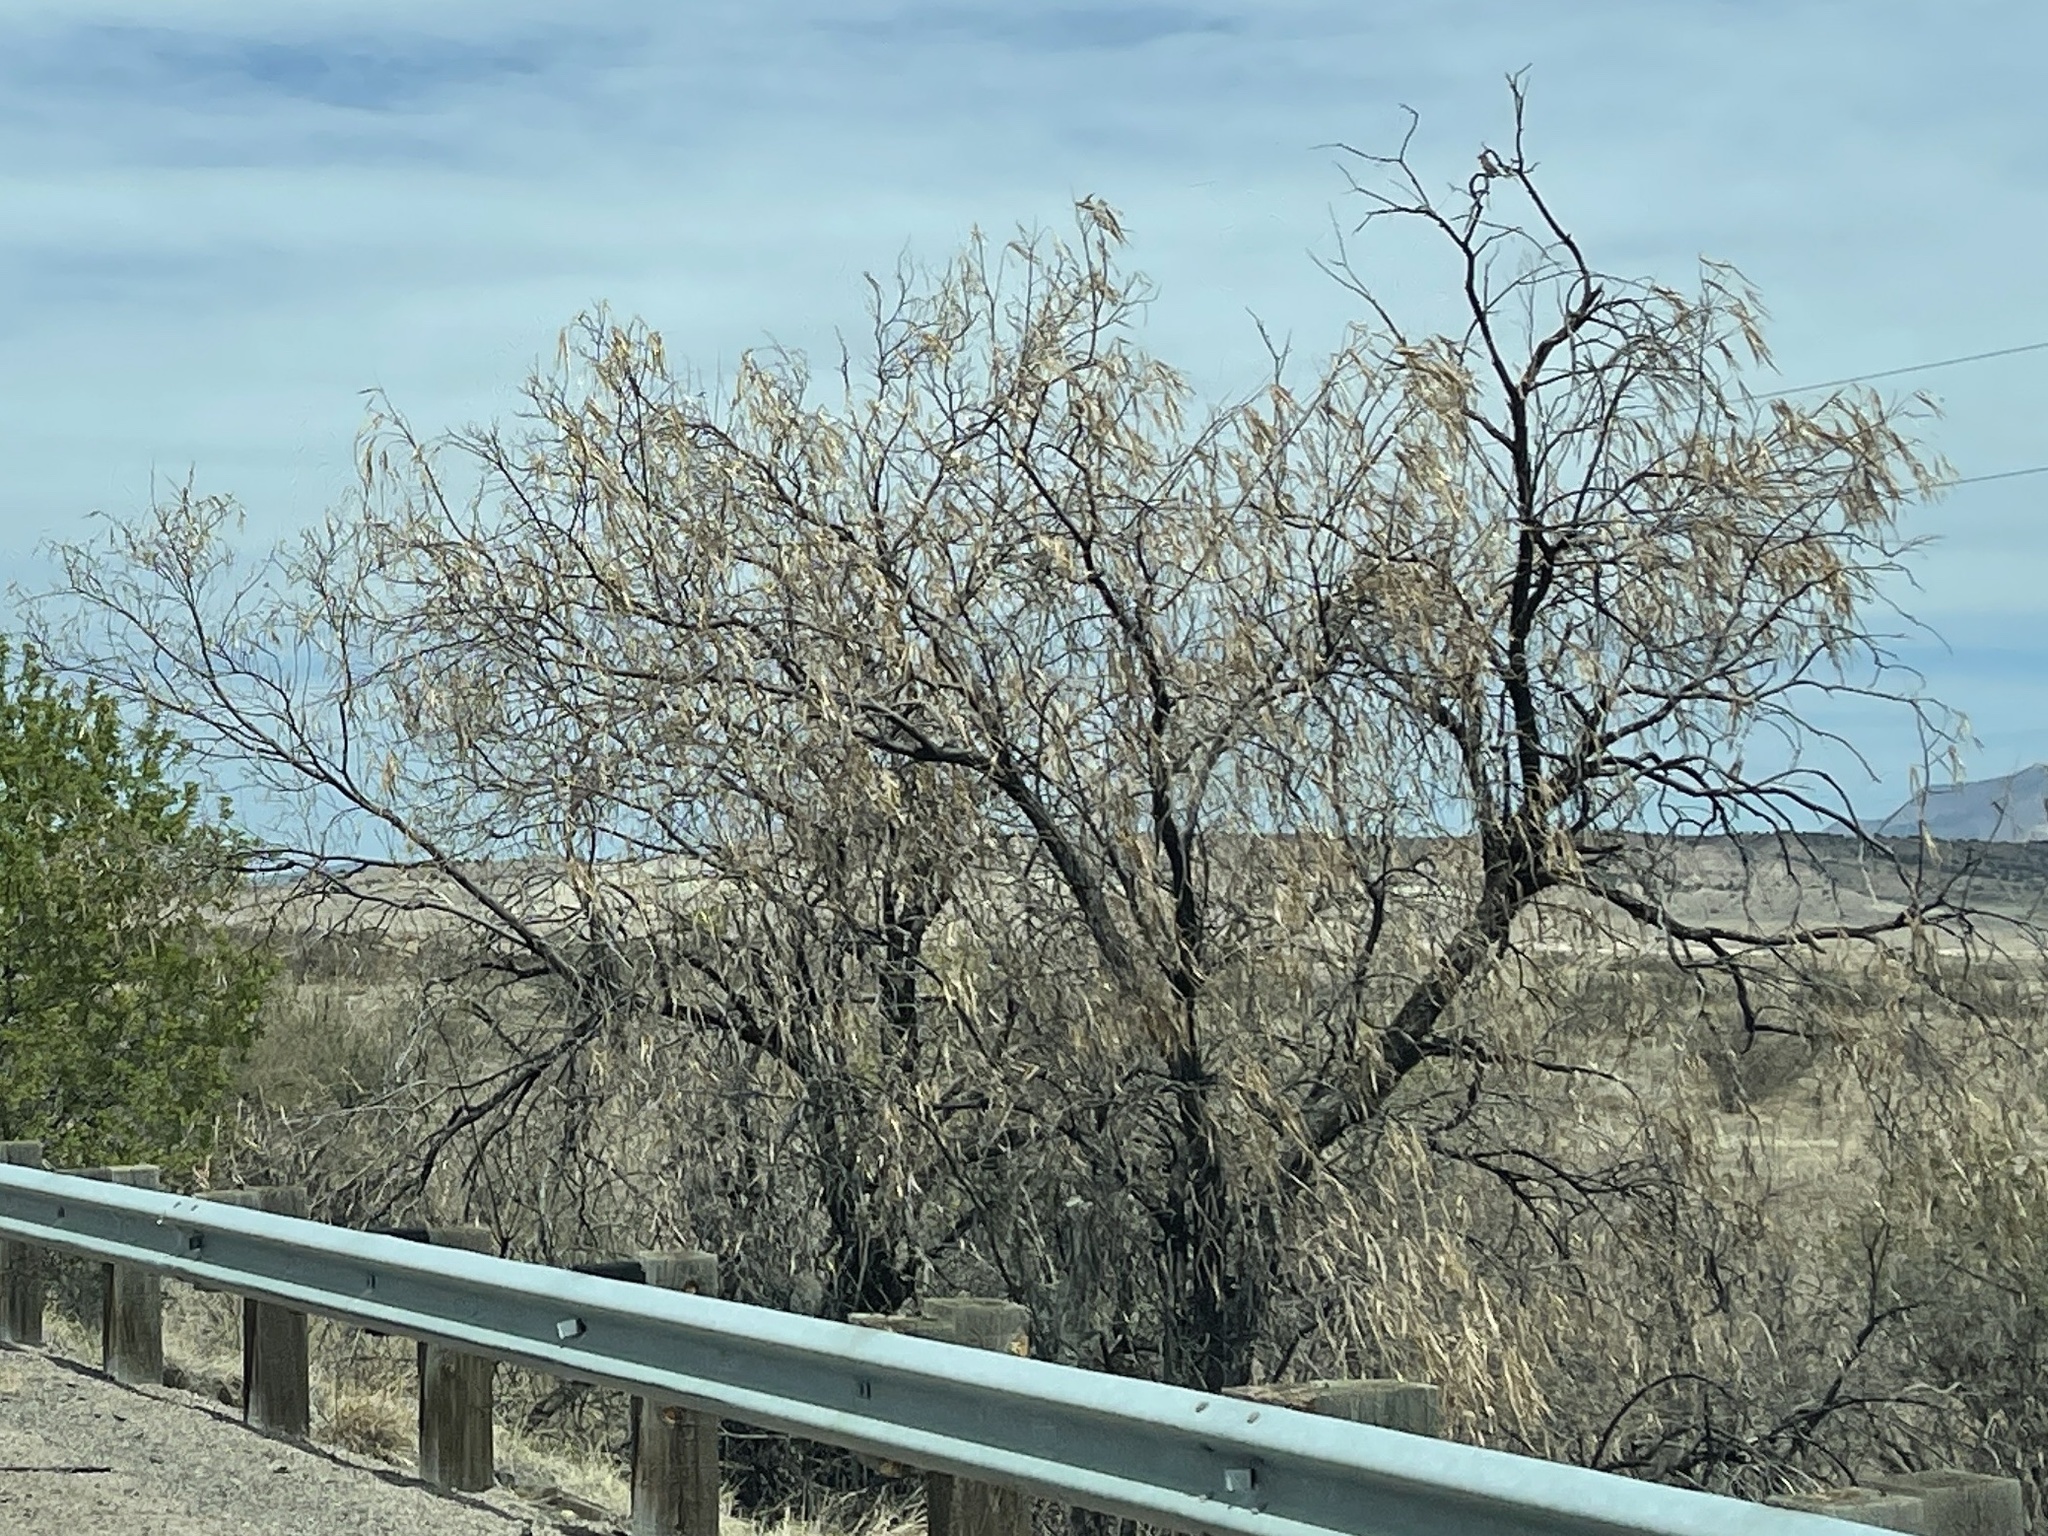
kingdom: Plantae
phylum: Tracheophyta
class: Magnoliopsida
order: Lamiales
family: Bignoniaceae
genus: Chilopsis
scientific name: Chilopsis linearis
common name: Desert-willow
